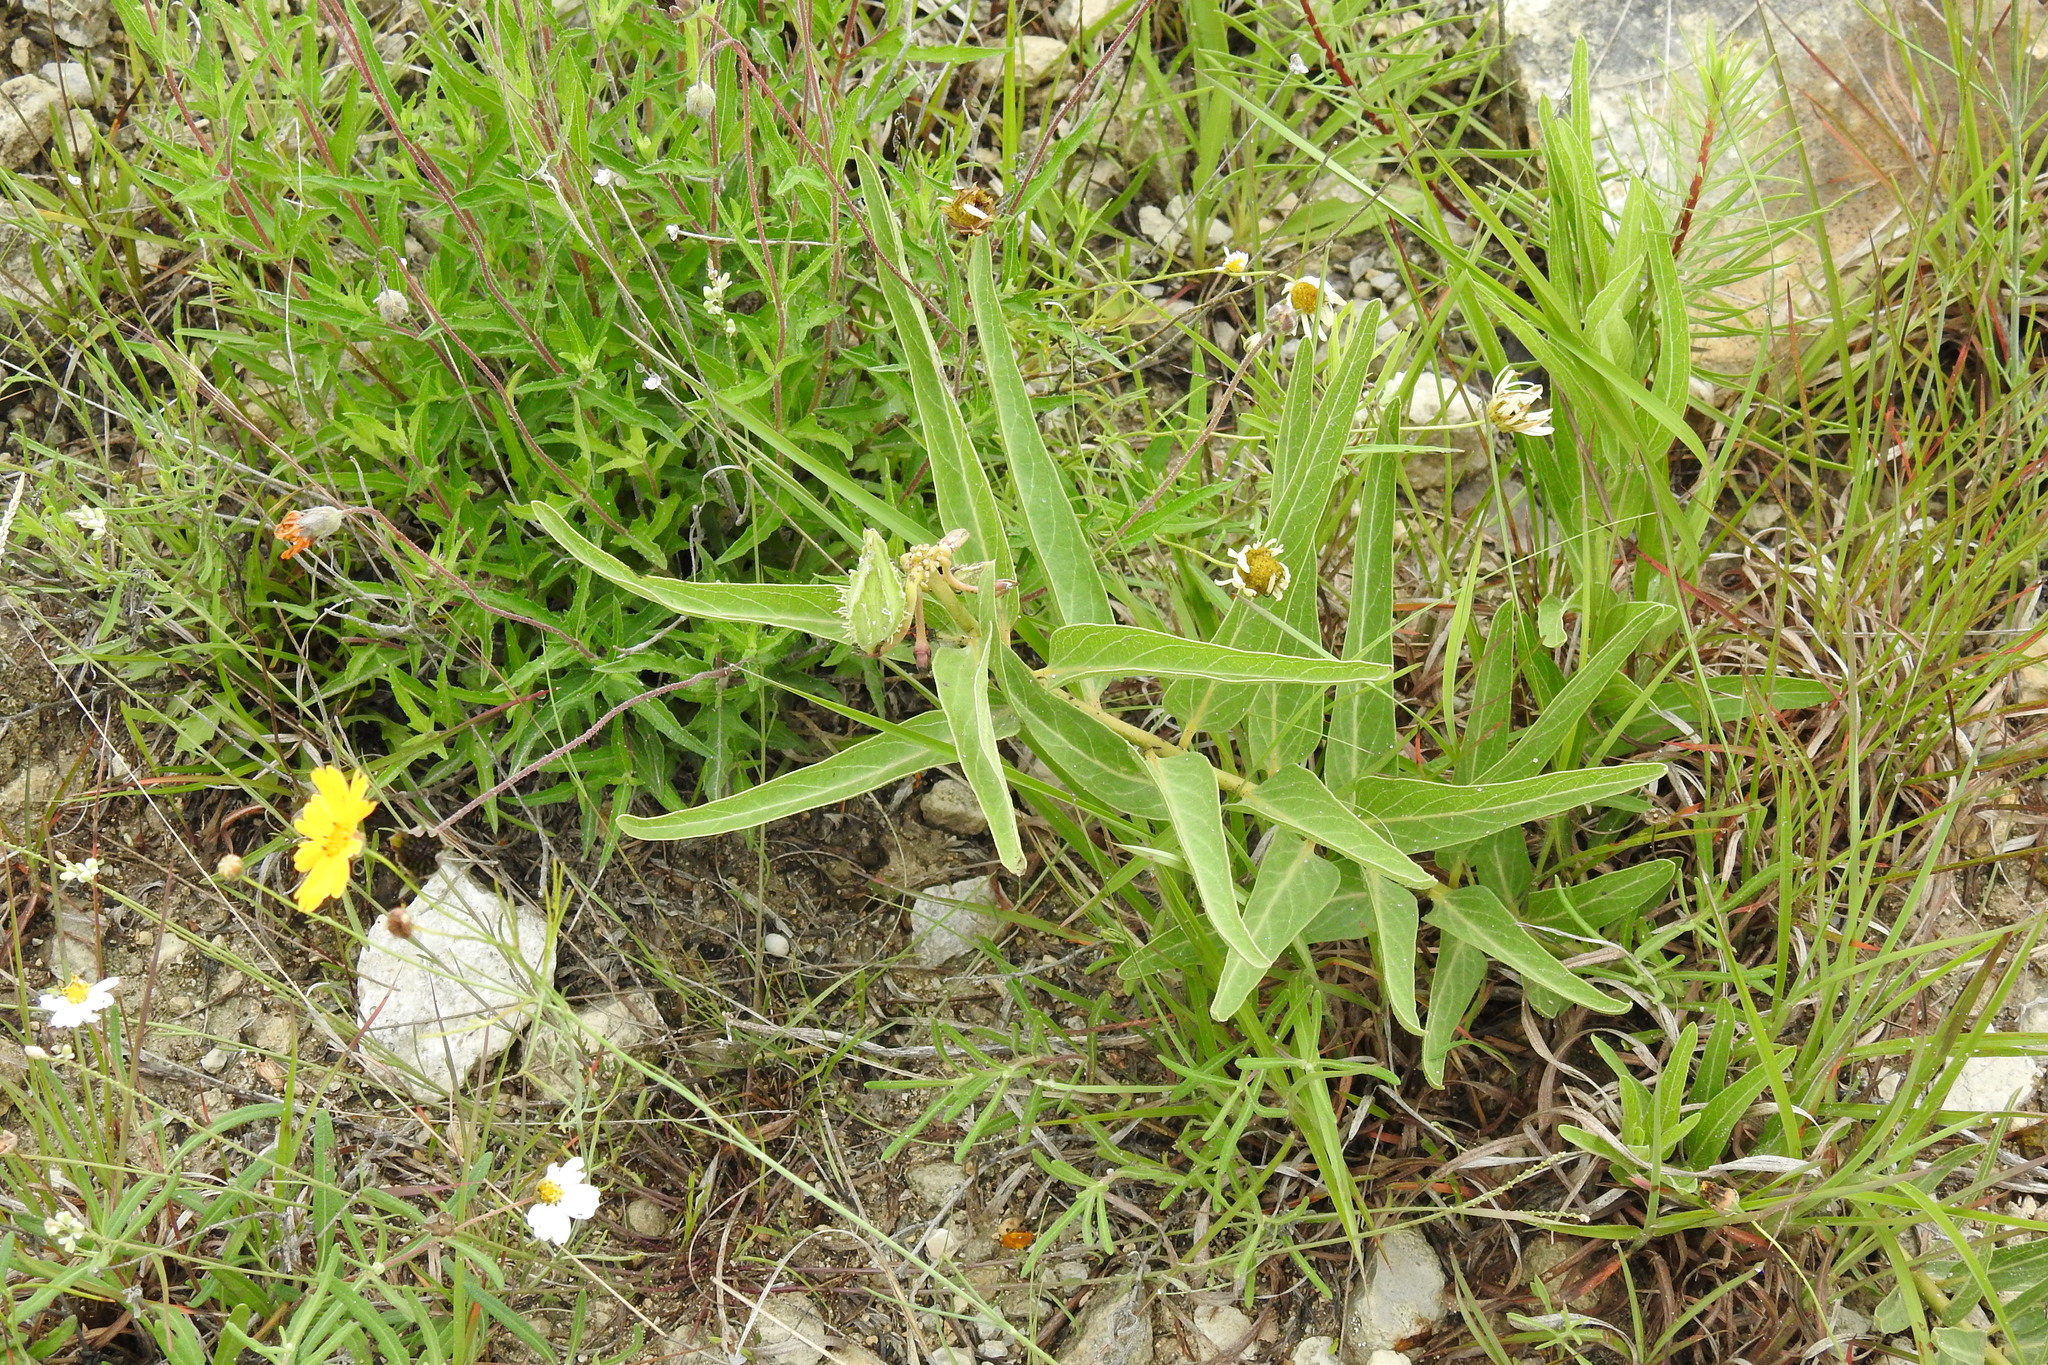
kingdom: Plantae
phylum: Tracheophyta
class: Magnoliopsida
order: Gentianales
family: Apocynaceae
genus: Asclepias
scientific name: Asclepias asperula
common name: Antelope horns
